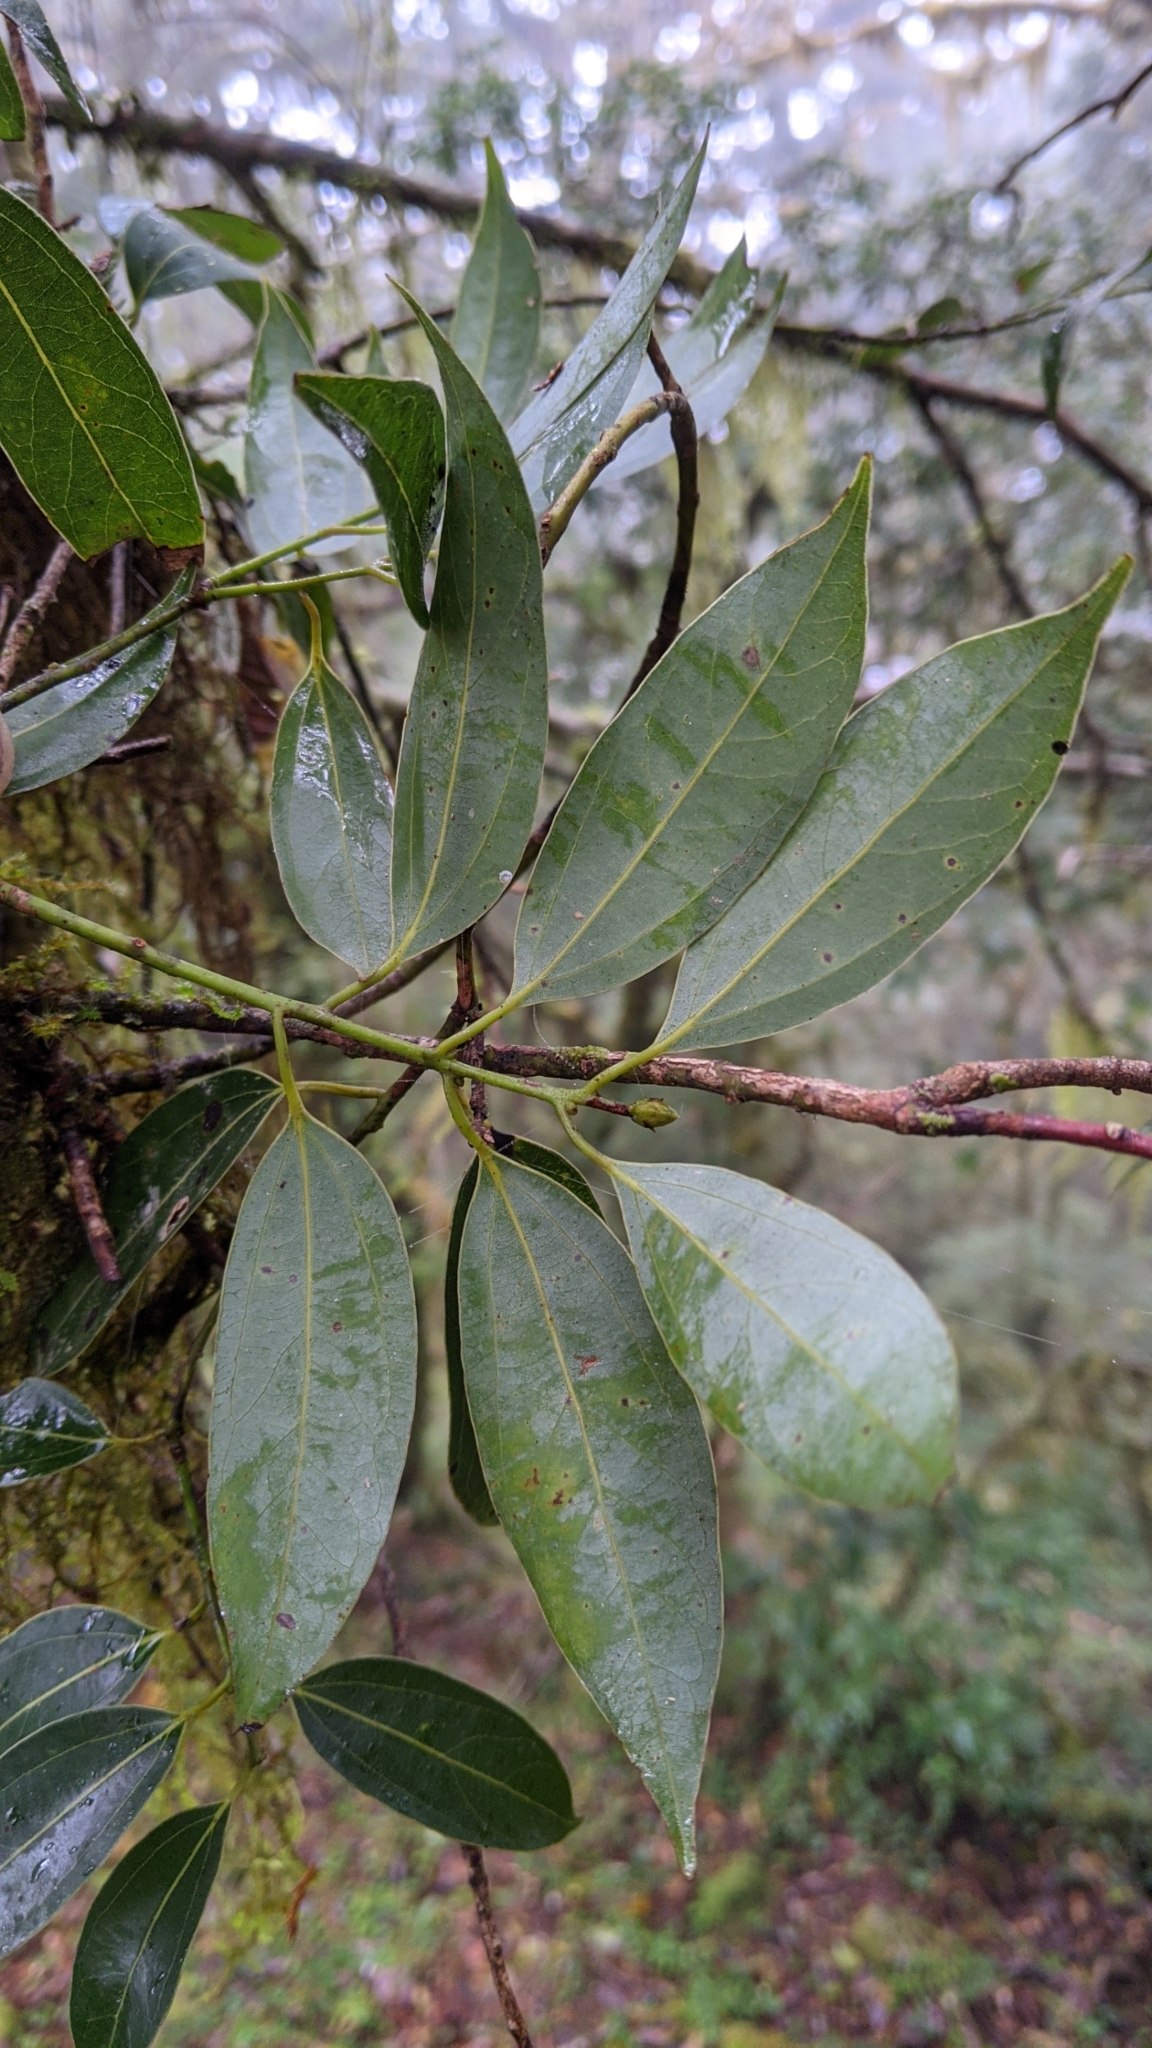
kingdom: Plantae
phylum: Tracheophyta
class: Magnoliopsida
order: Laurales
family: Lauraceae
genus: Cinnamomum
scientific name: Cinnamomum chekiangense
